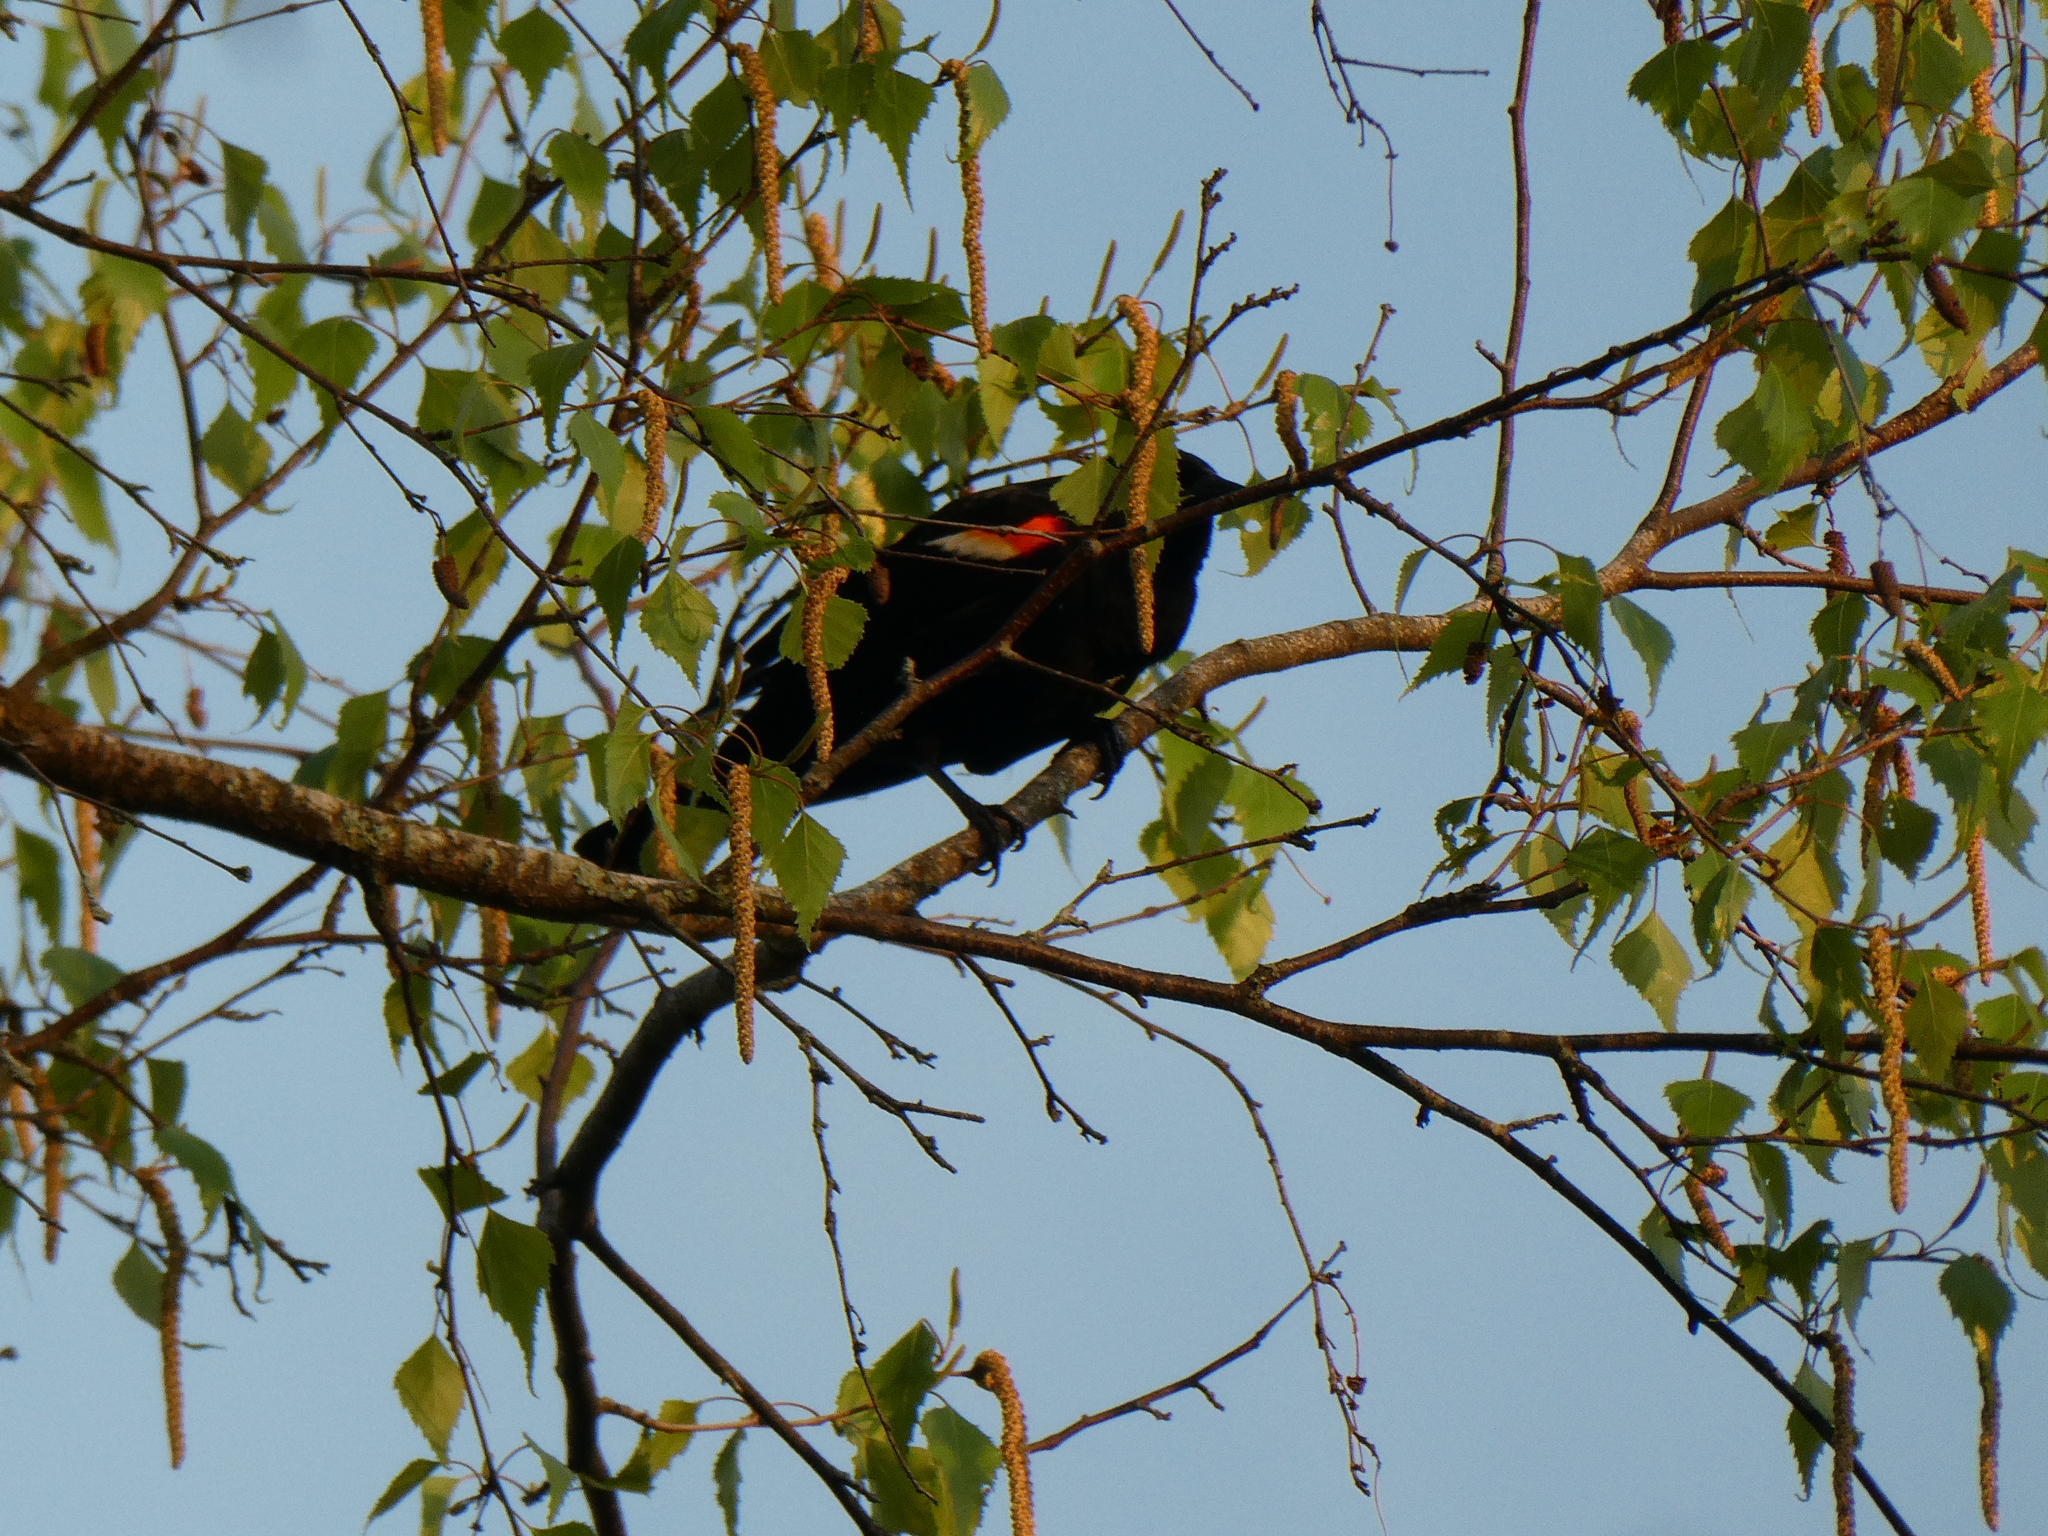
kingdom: Animalia
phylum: Chordata
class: Aves
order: Passeriformes
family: Icteridae
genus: Agelaius
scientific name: Agelaius phoeniceus
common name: Red-winged blackbird
